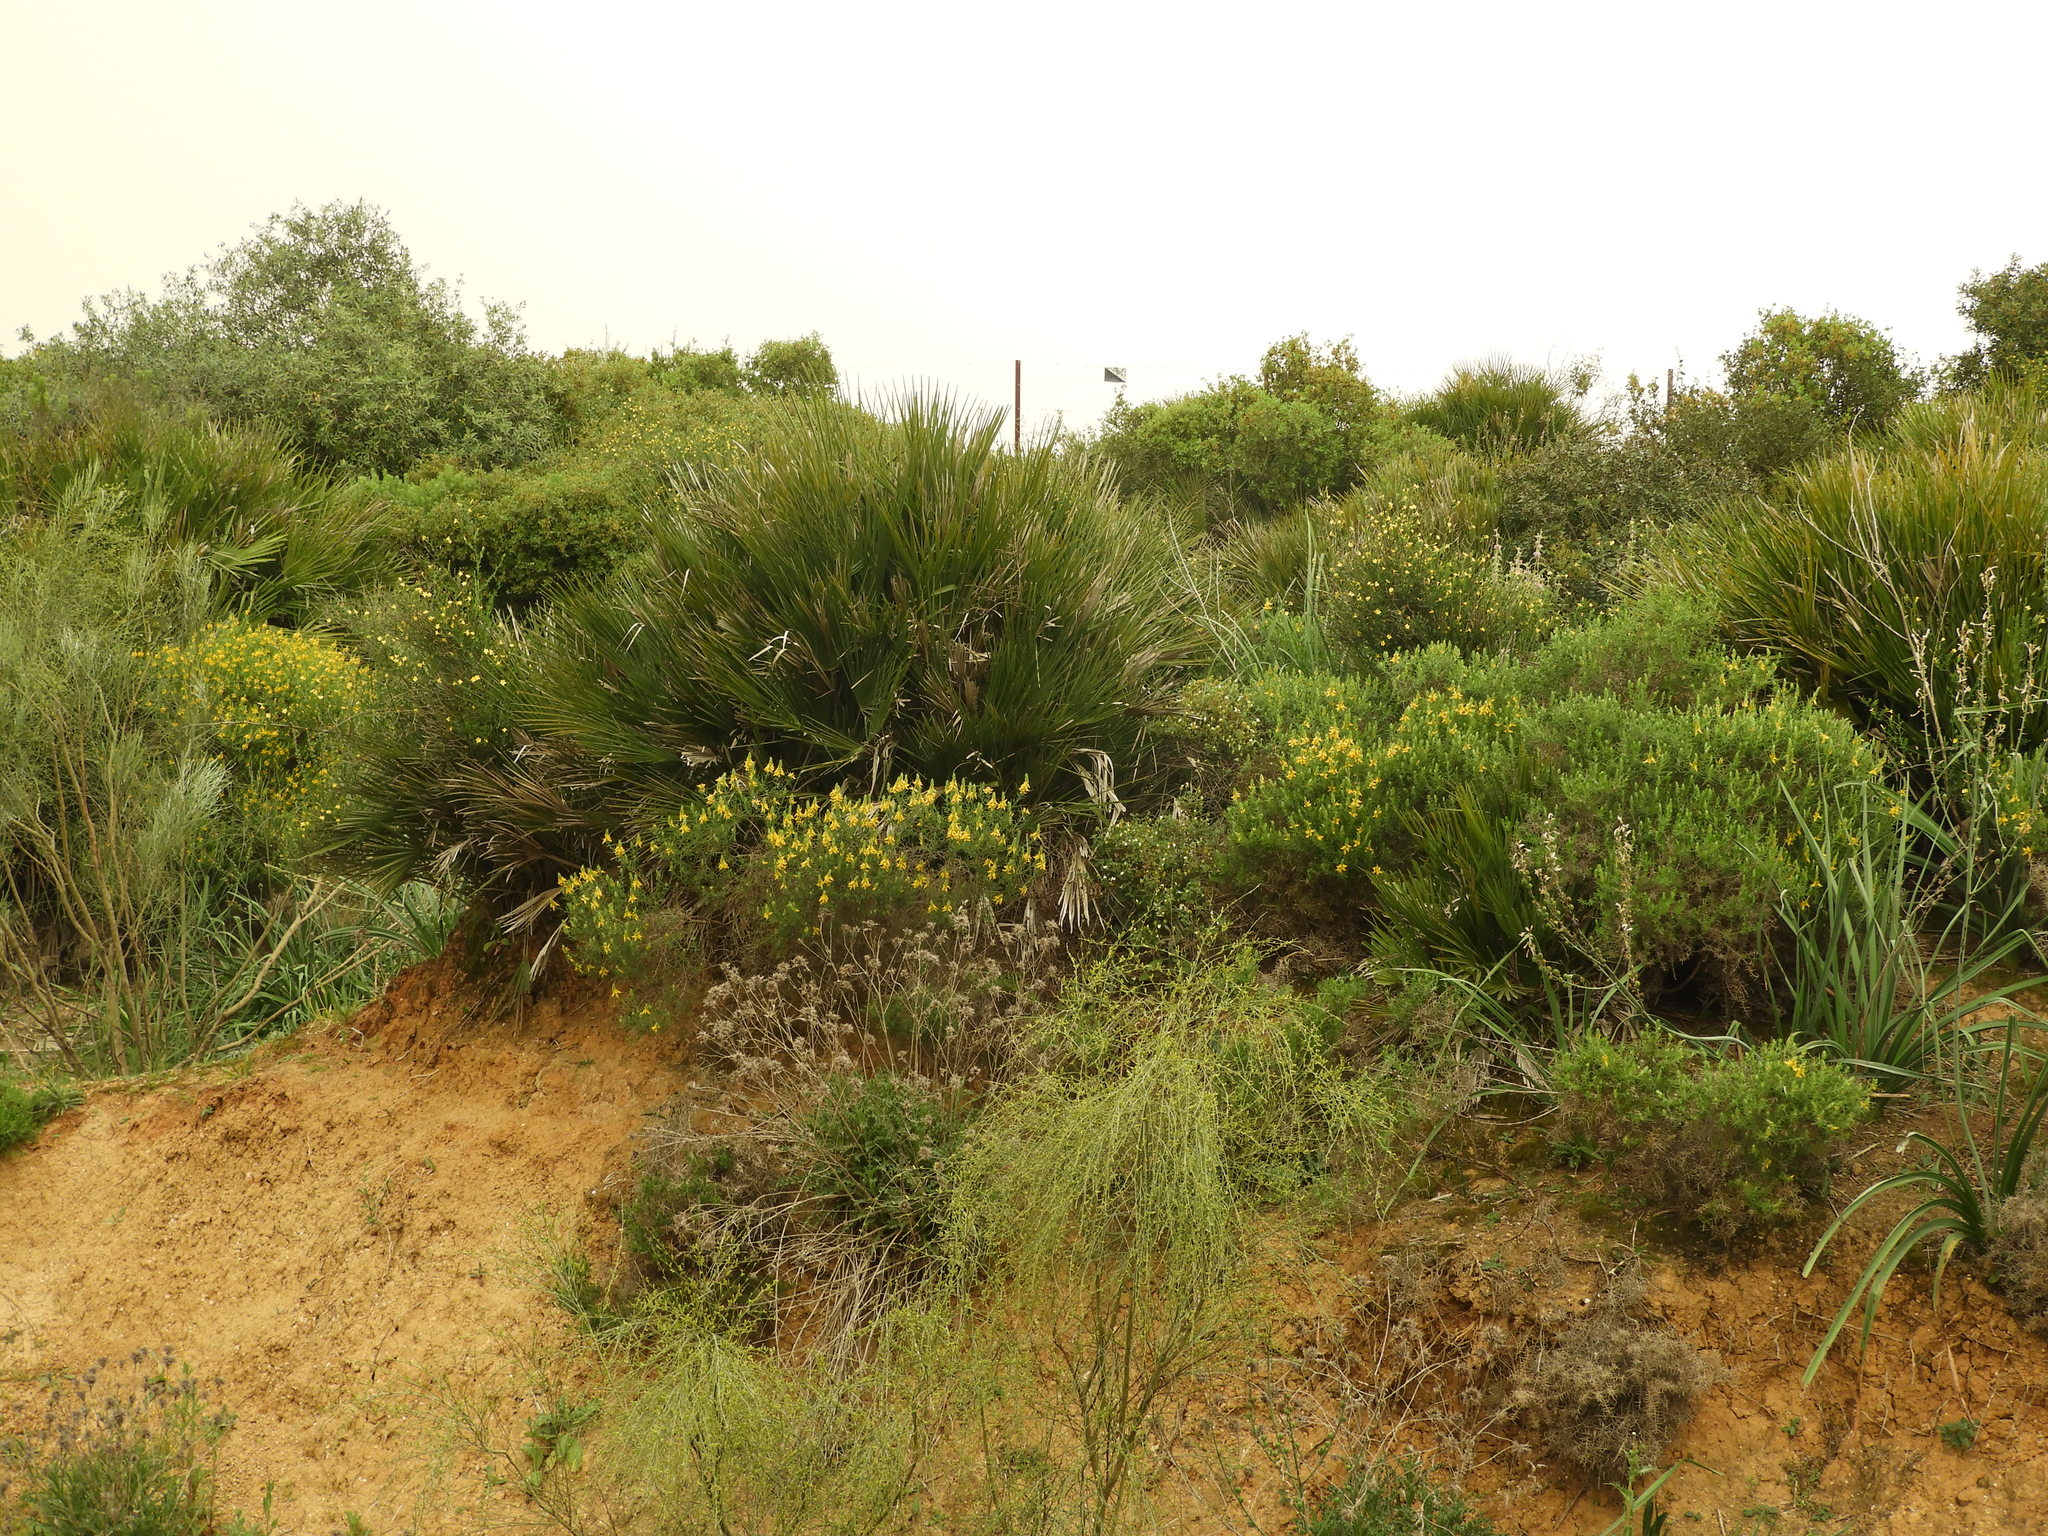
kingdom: Plantae
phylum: Tracheophyta
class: Magnoliopsida
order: Fabales
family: Fabaceae
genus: Genista
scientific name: Genista hirsuta
